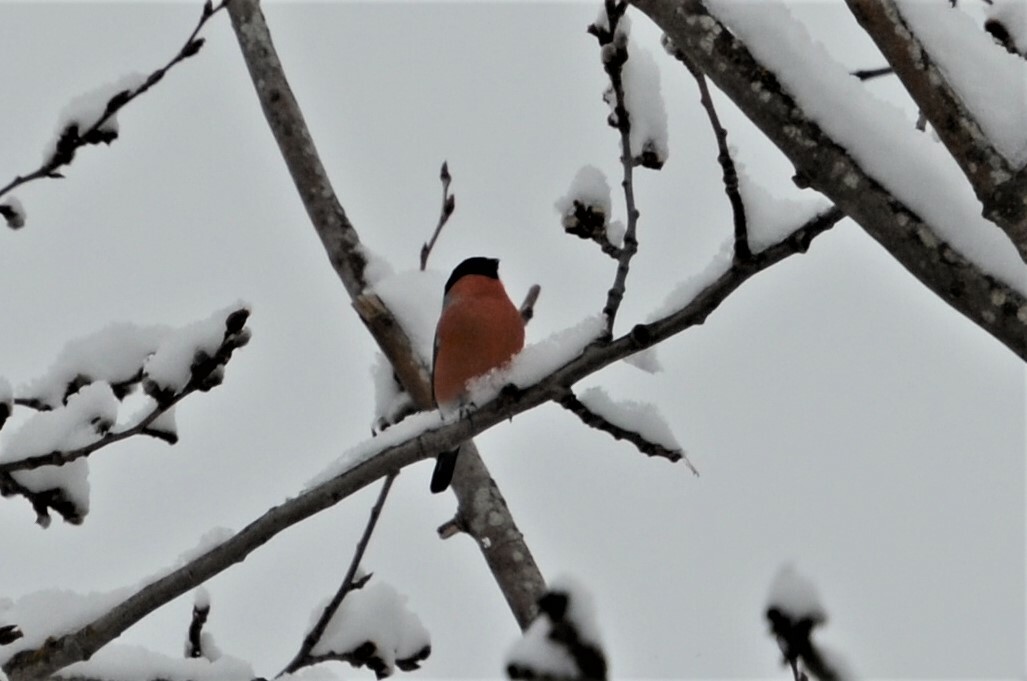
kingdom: Animalia
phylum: Chordata
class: Aves
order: Passeriformes
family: Fringillidae
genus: Pyrrhula
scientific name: Pyrrhula pyrrhula
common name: Eurasian bullfinch
